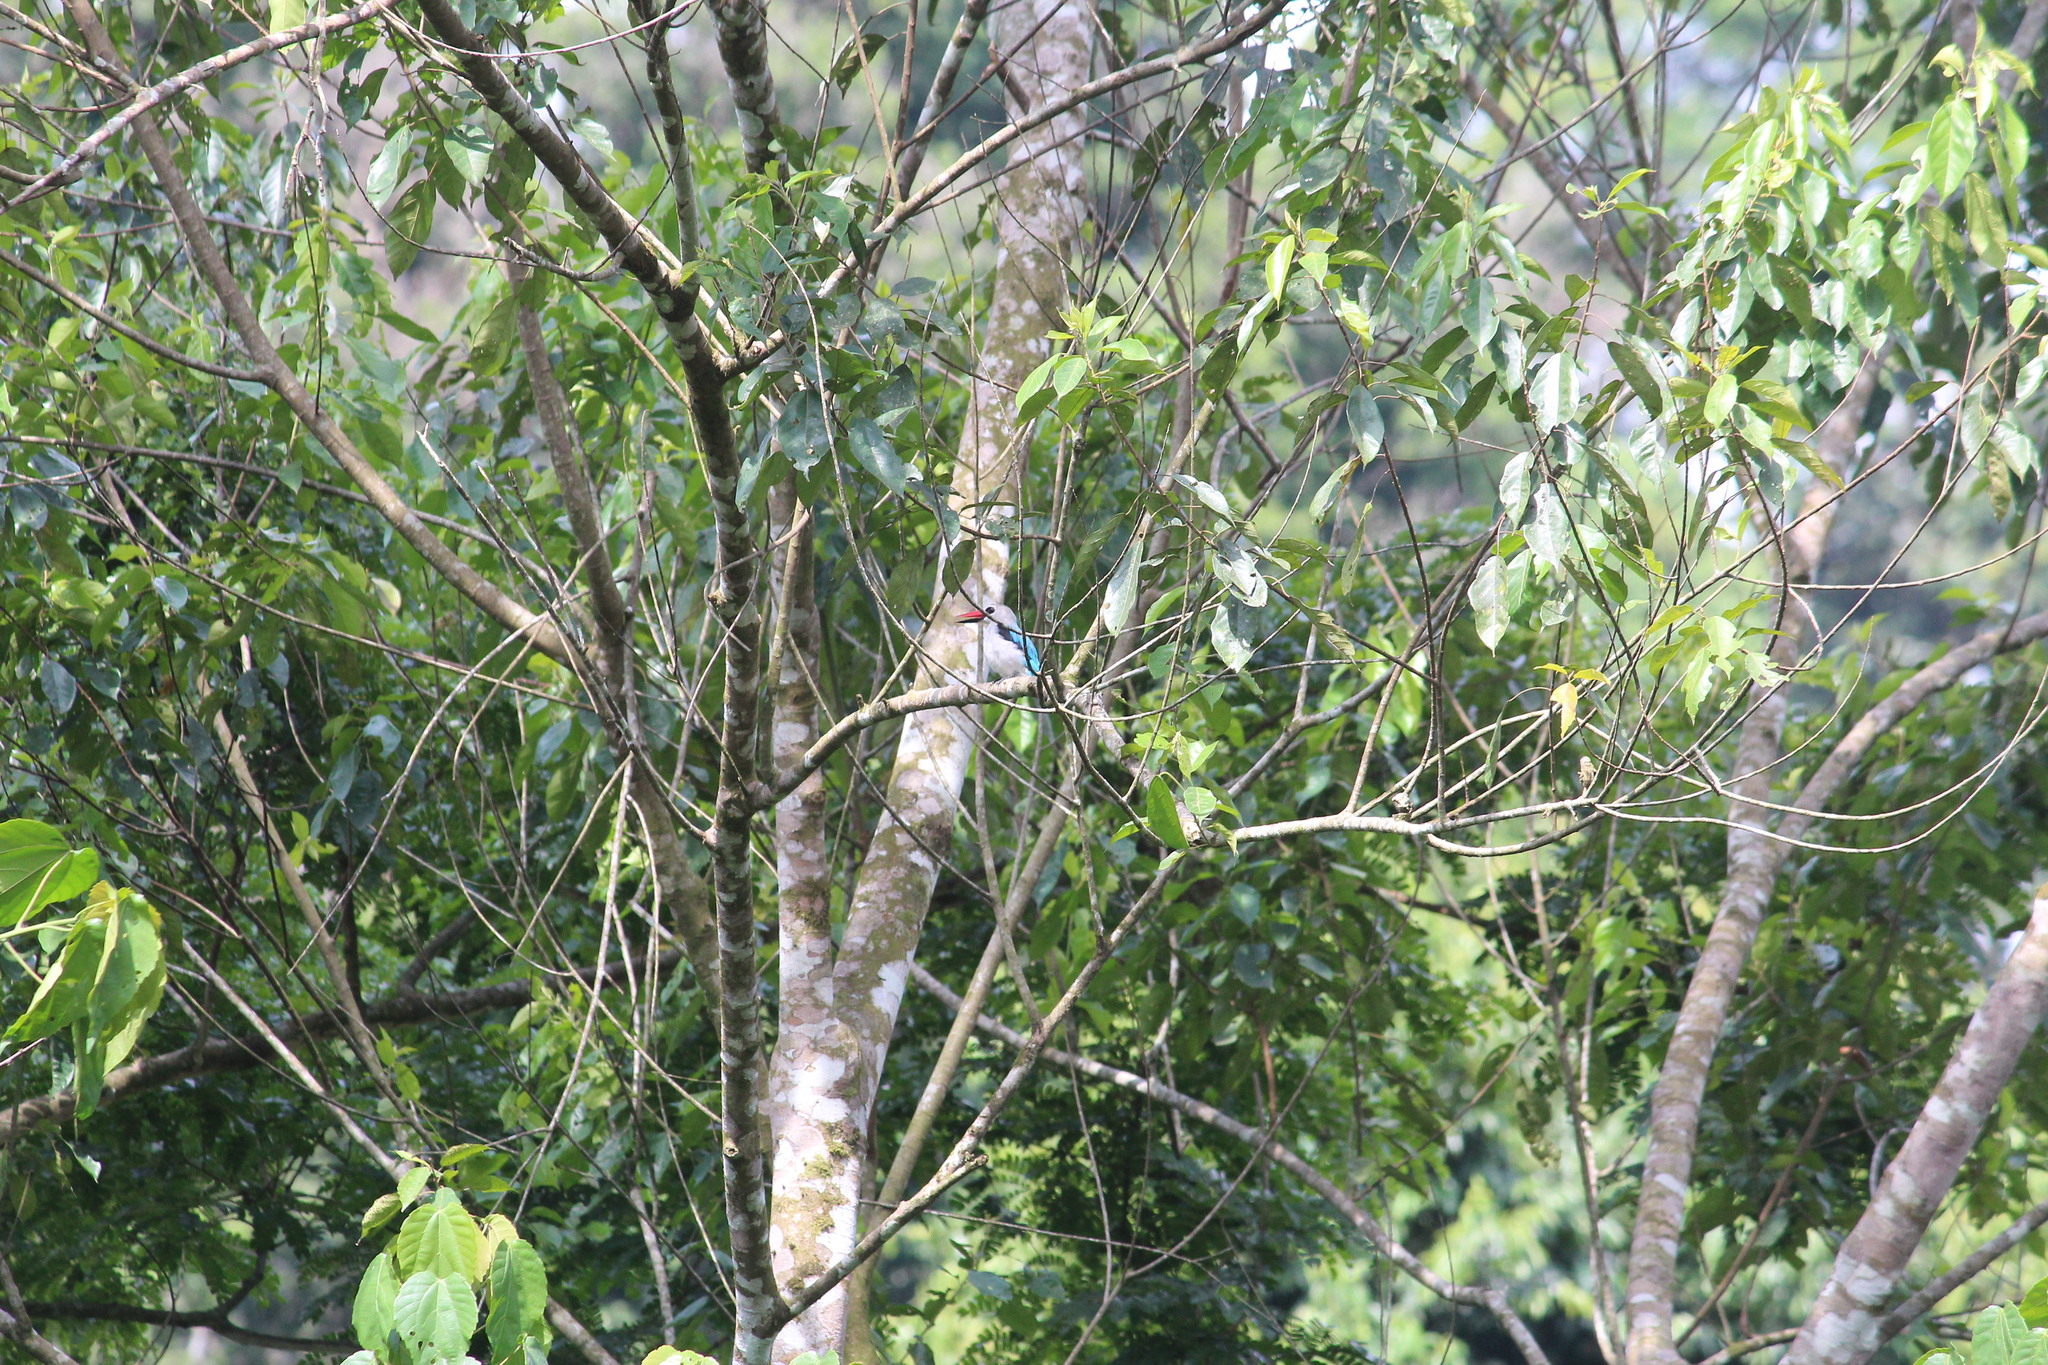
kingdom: Animalia
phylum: Chordata
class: Aves
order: Coraciiformes
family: Alcedinidae
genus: Halcyon
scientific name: Halcyon senegalensis
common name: Woodland kingfisher
